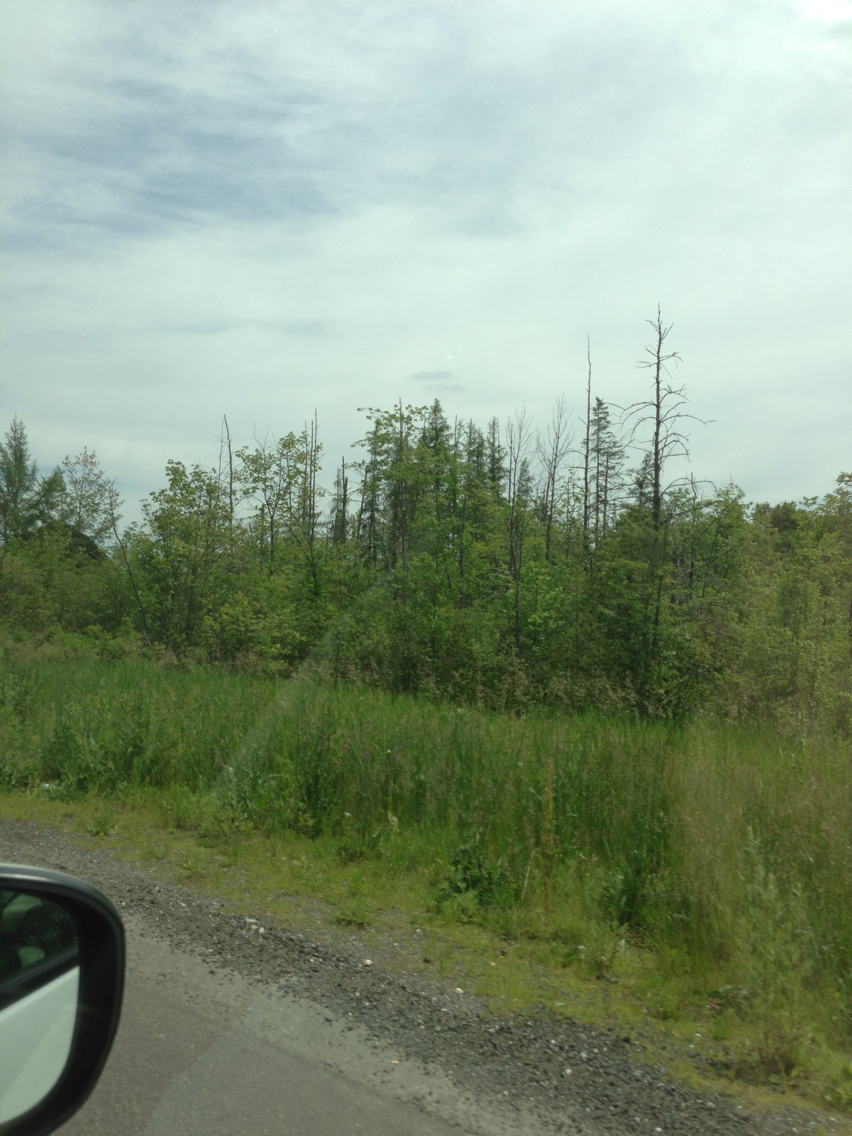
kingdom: Plantae
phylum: Tracheophyta
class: Pinopsida
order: Pinales
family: Pinaceae
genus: Larix
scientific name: Larix laricina
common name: American larch
